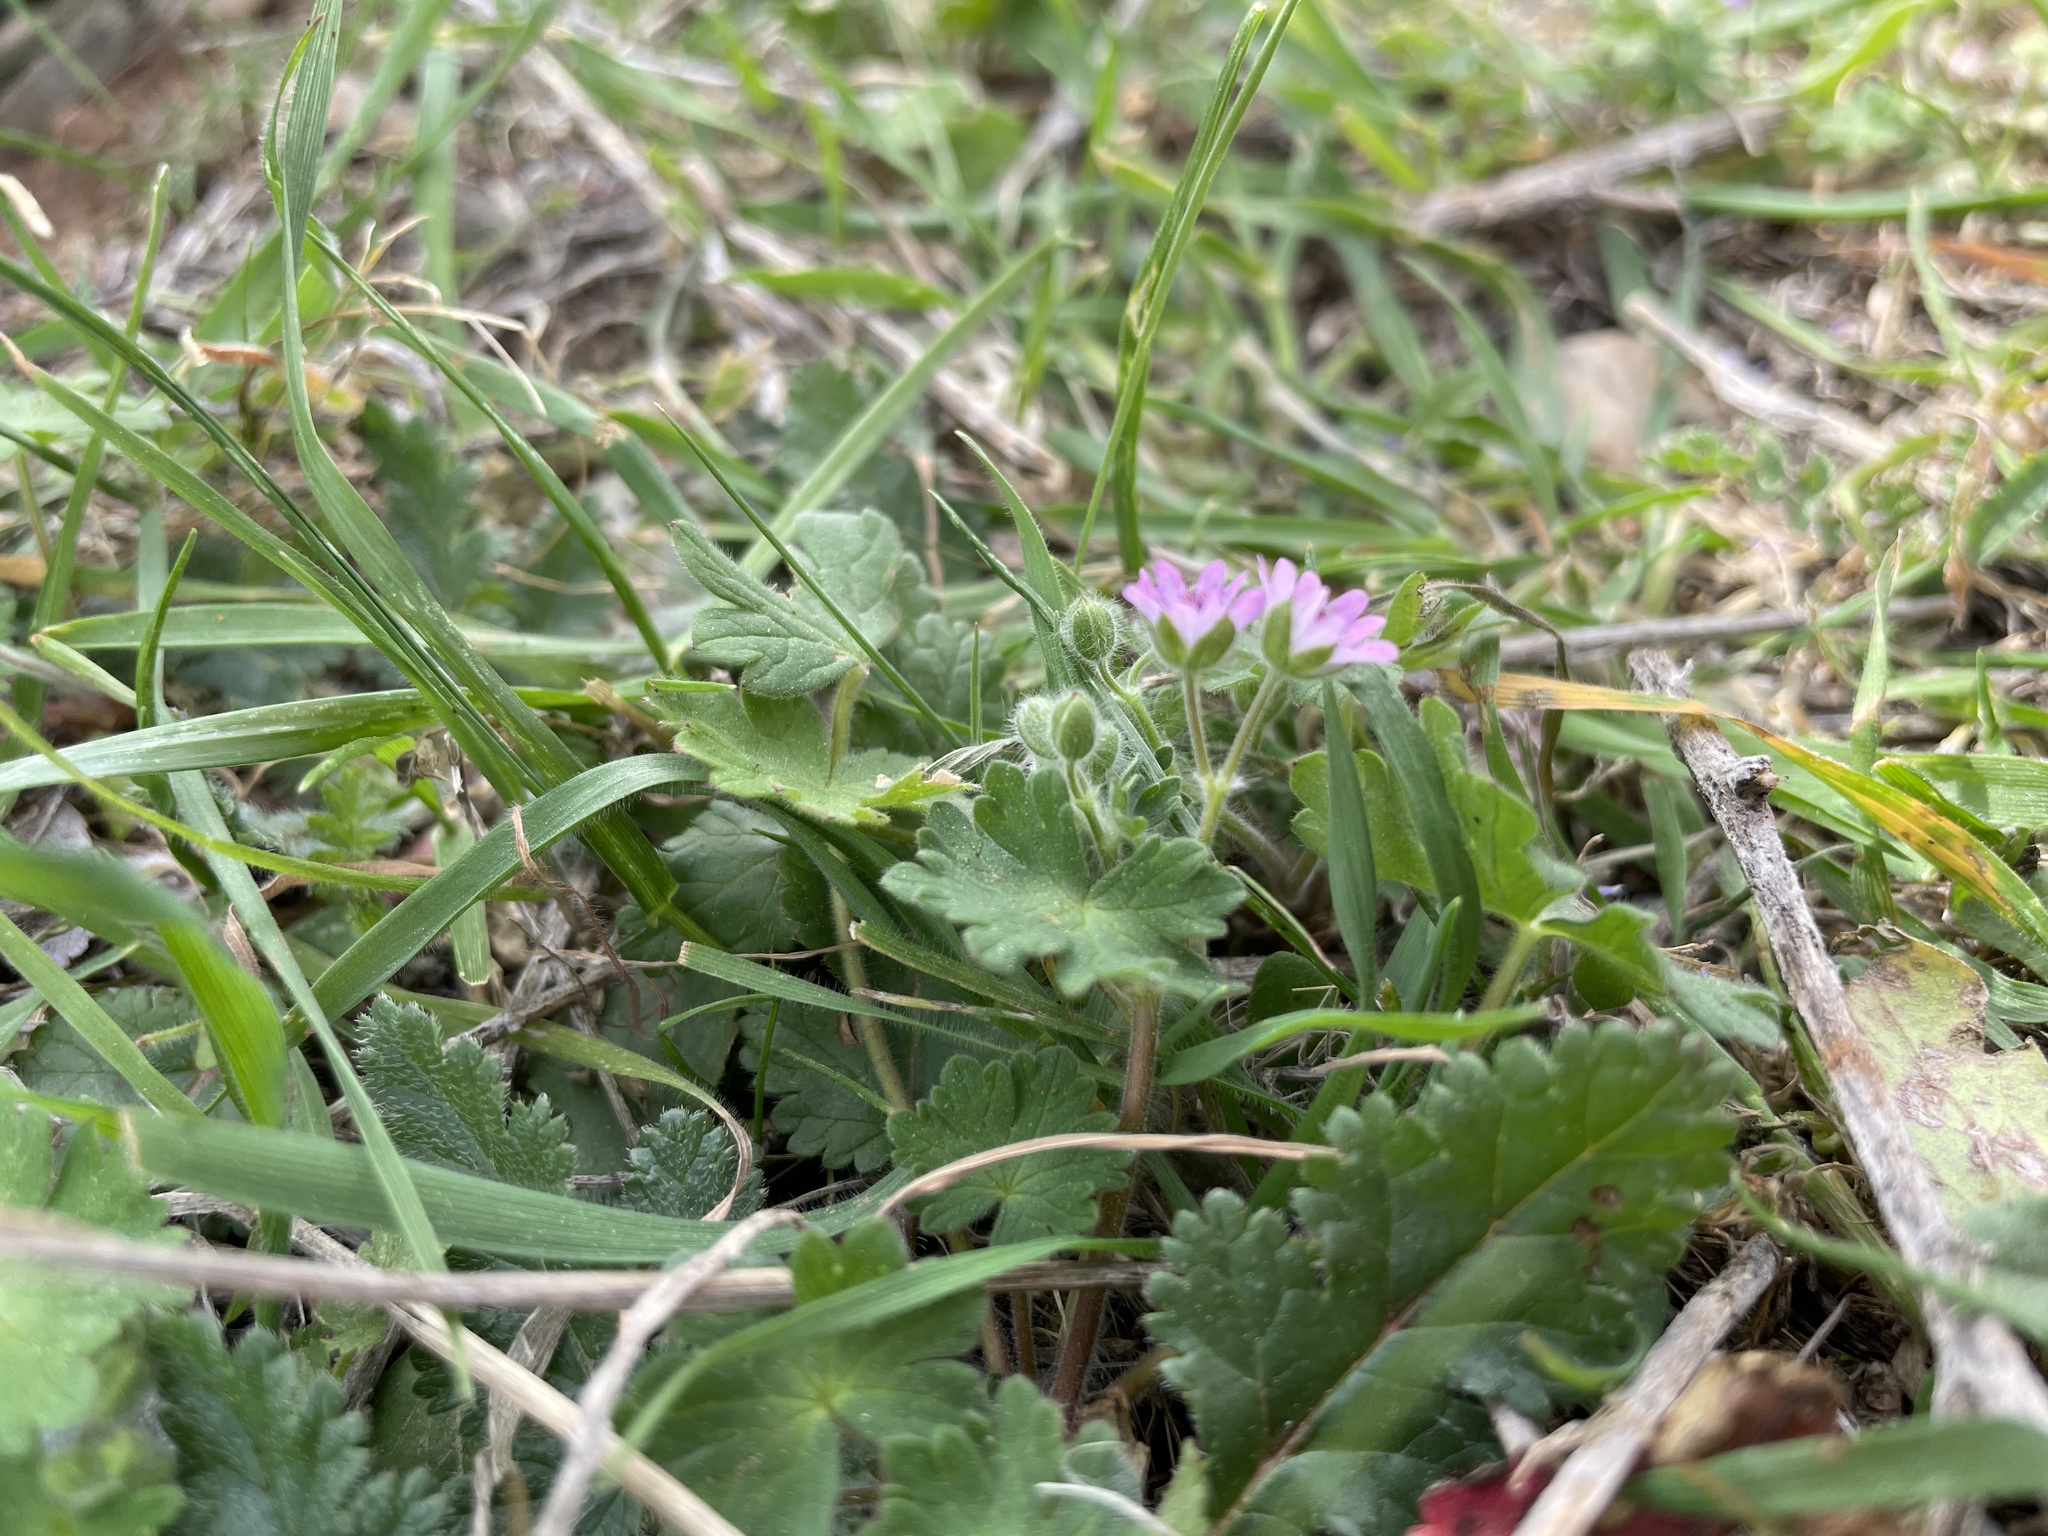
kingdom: Plantae
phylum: Tracheophyta
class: Magnoliopsida
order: Geraniales
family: Geraniaceae
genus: Geranium
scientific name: Geranium molle
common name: Dove's-foot crane's-bill
